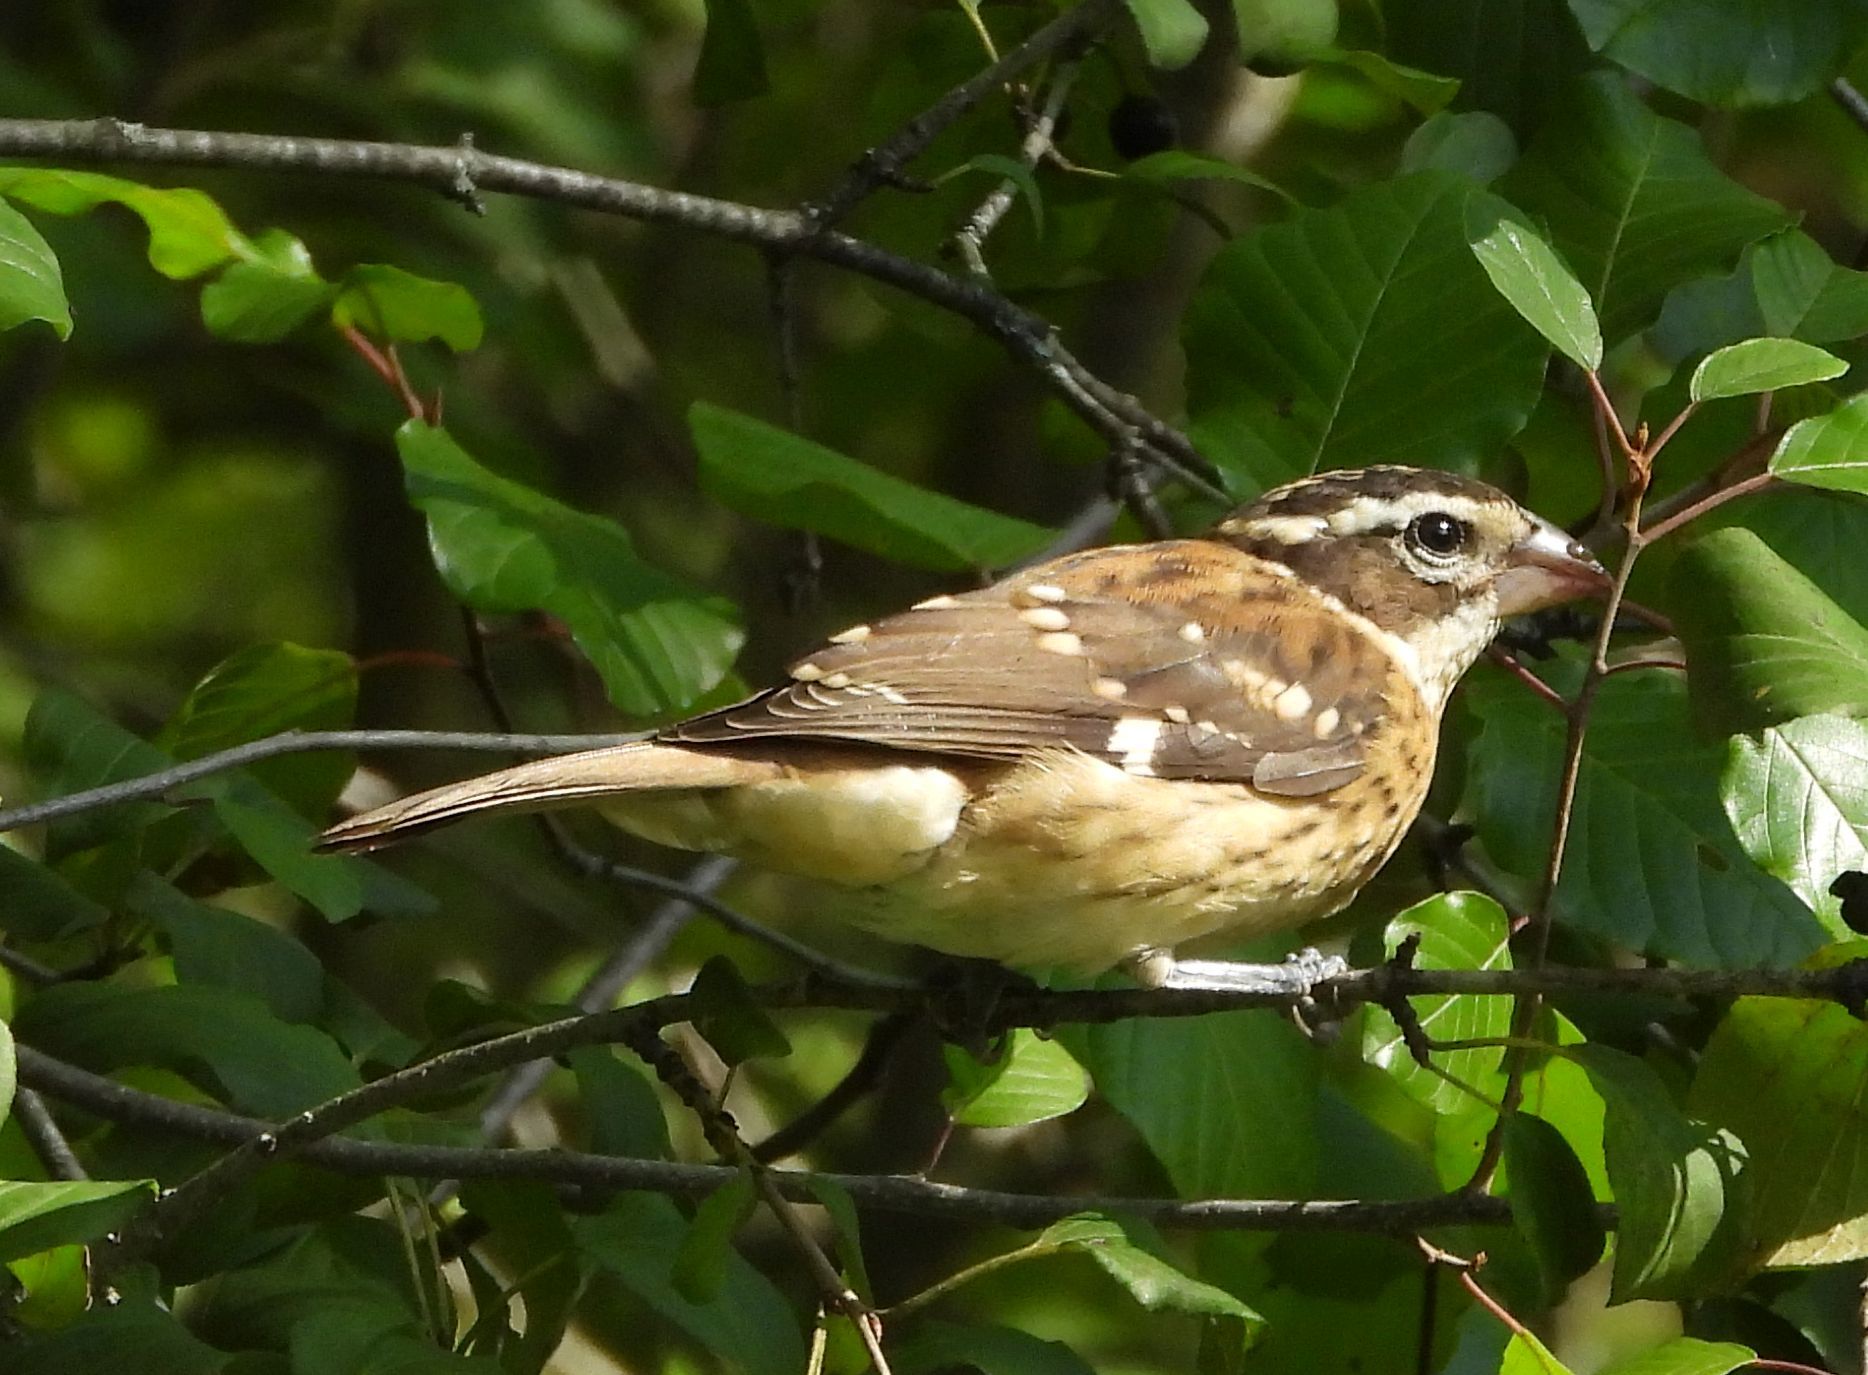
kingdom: Animalia
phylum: Chordata
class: Aves
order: Passeriformes
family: Cardinalidae
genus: Pheucticus
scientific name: Pheucticus ludovicianus
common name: Rose-breasted grosbeak
